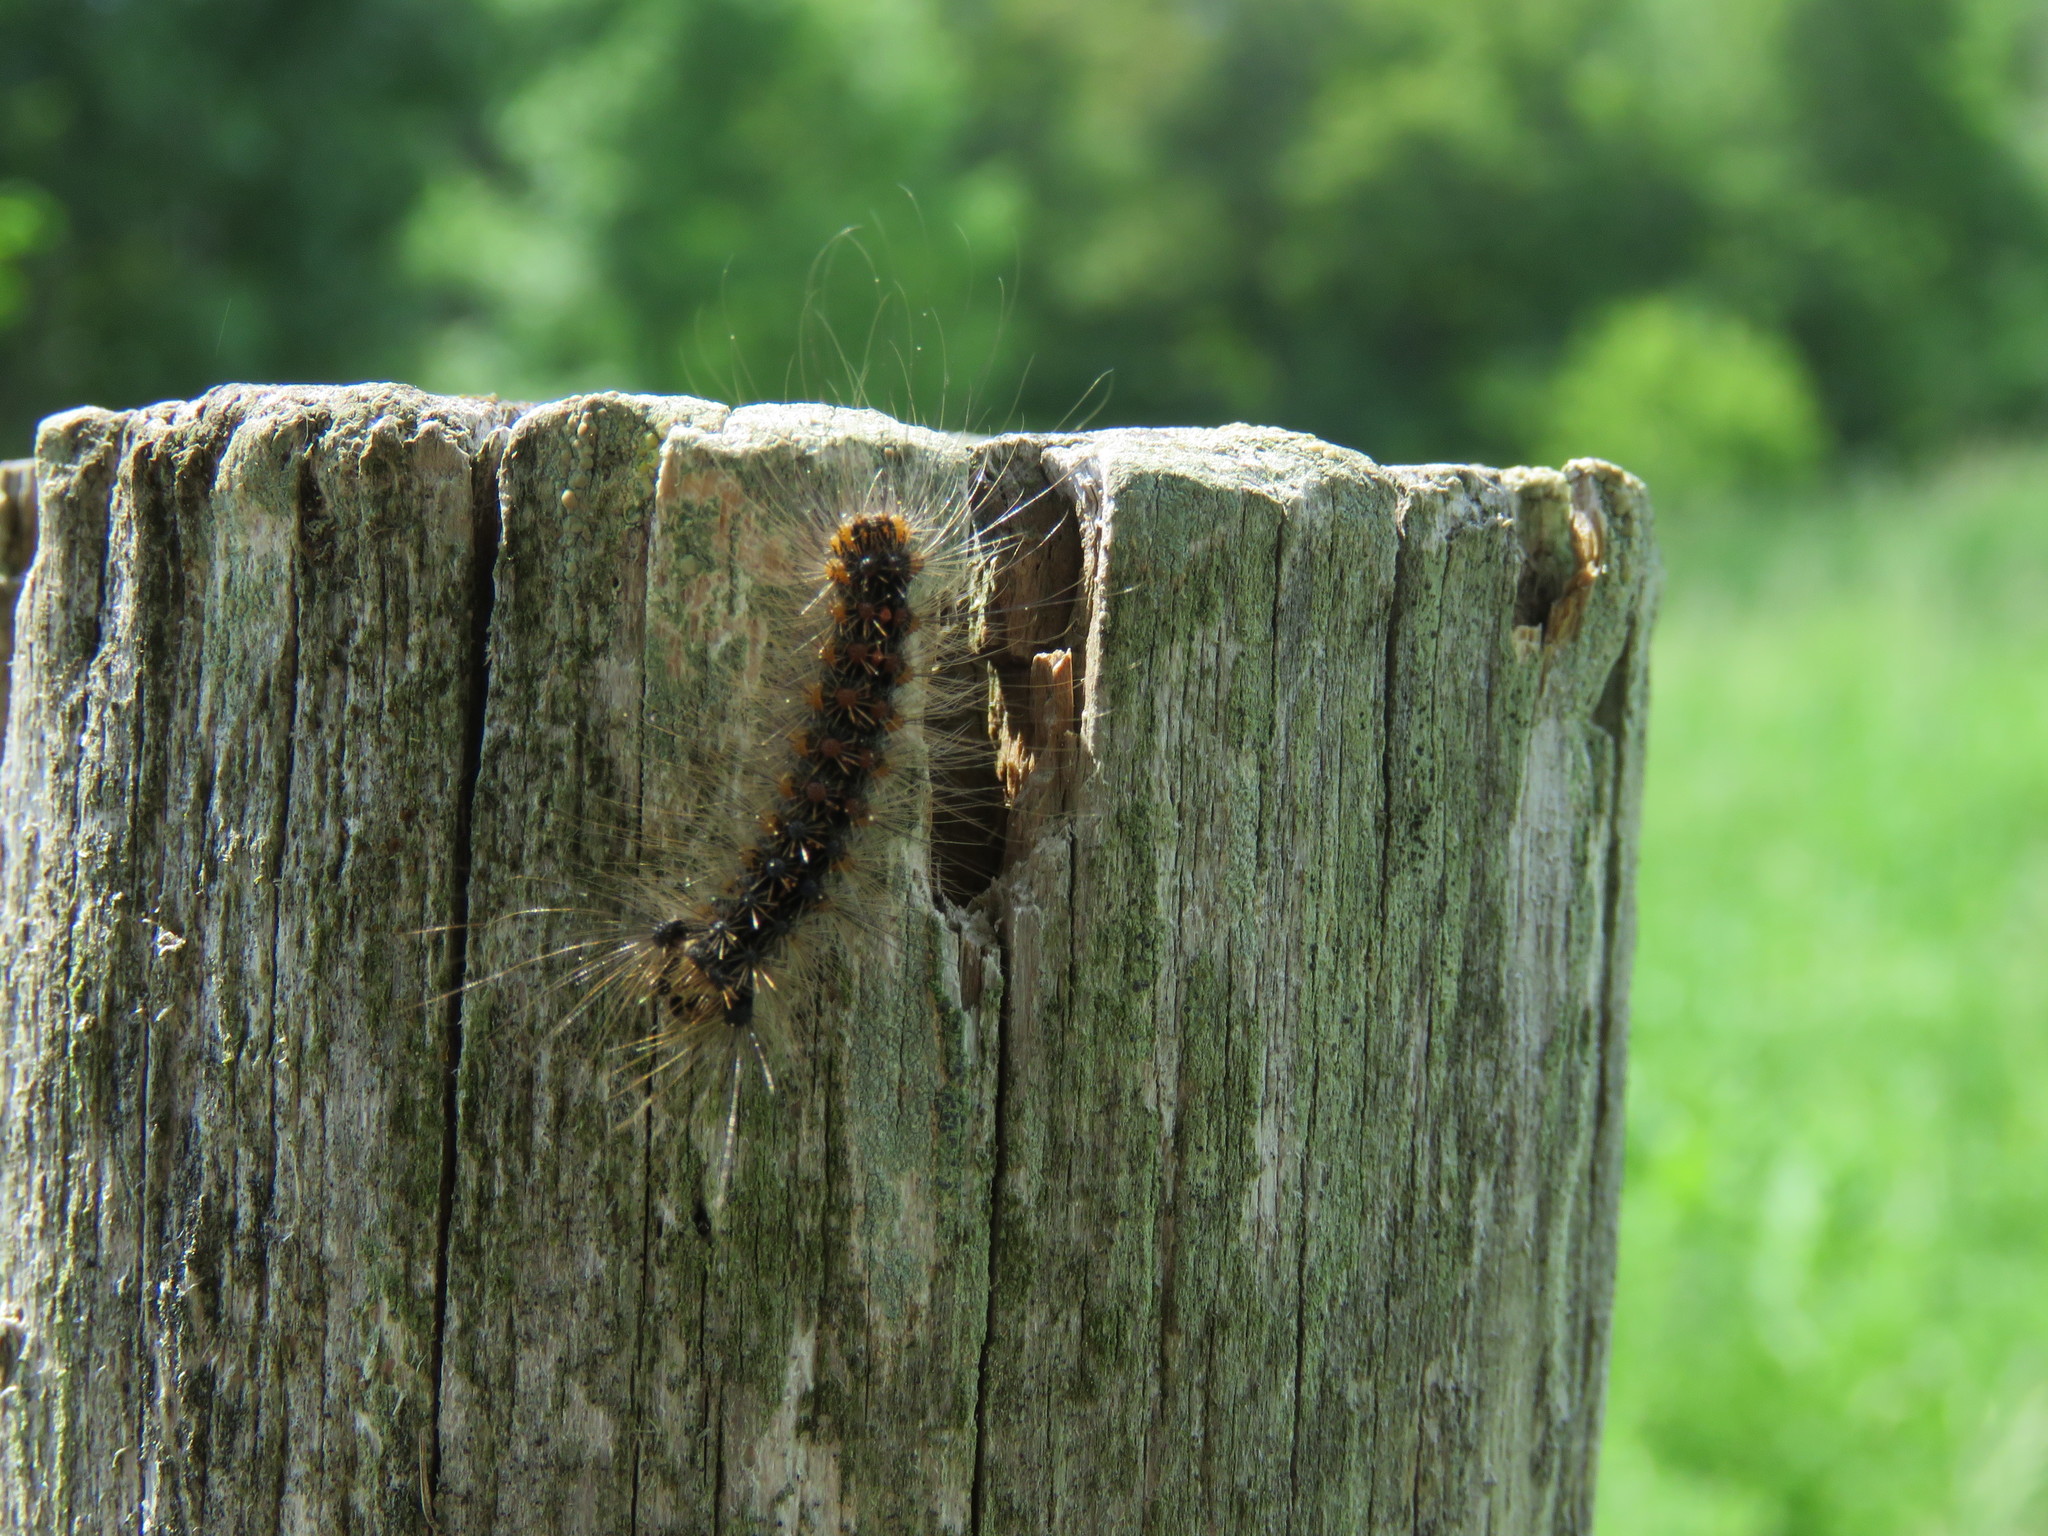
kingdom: Animalia
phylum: Arthropoda
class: Insecta
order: Lepidoptera
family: Erebidae
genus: Lymantria
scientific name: Lymantria dispar
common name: Gypsy moth
